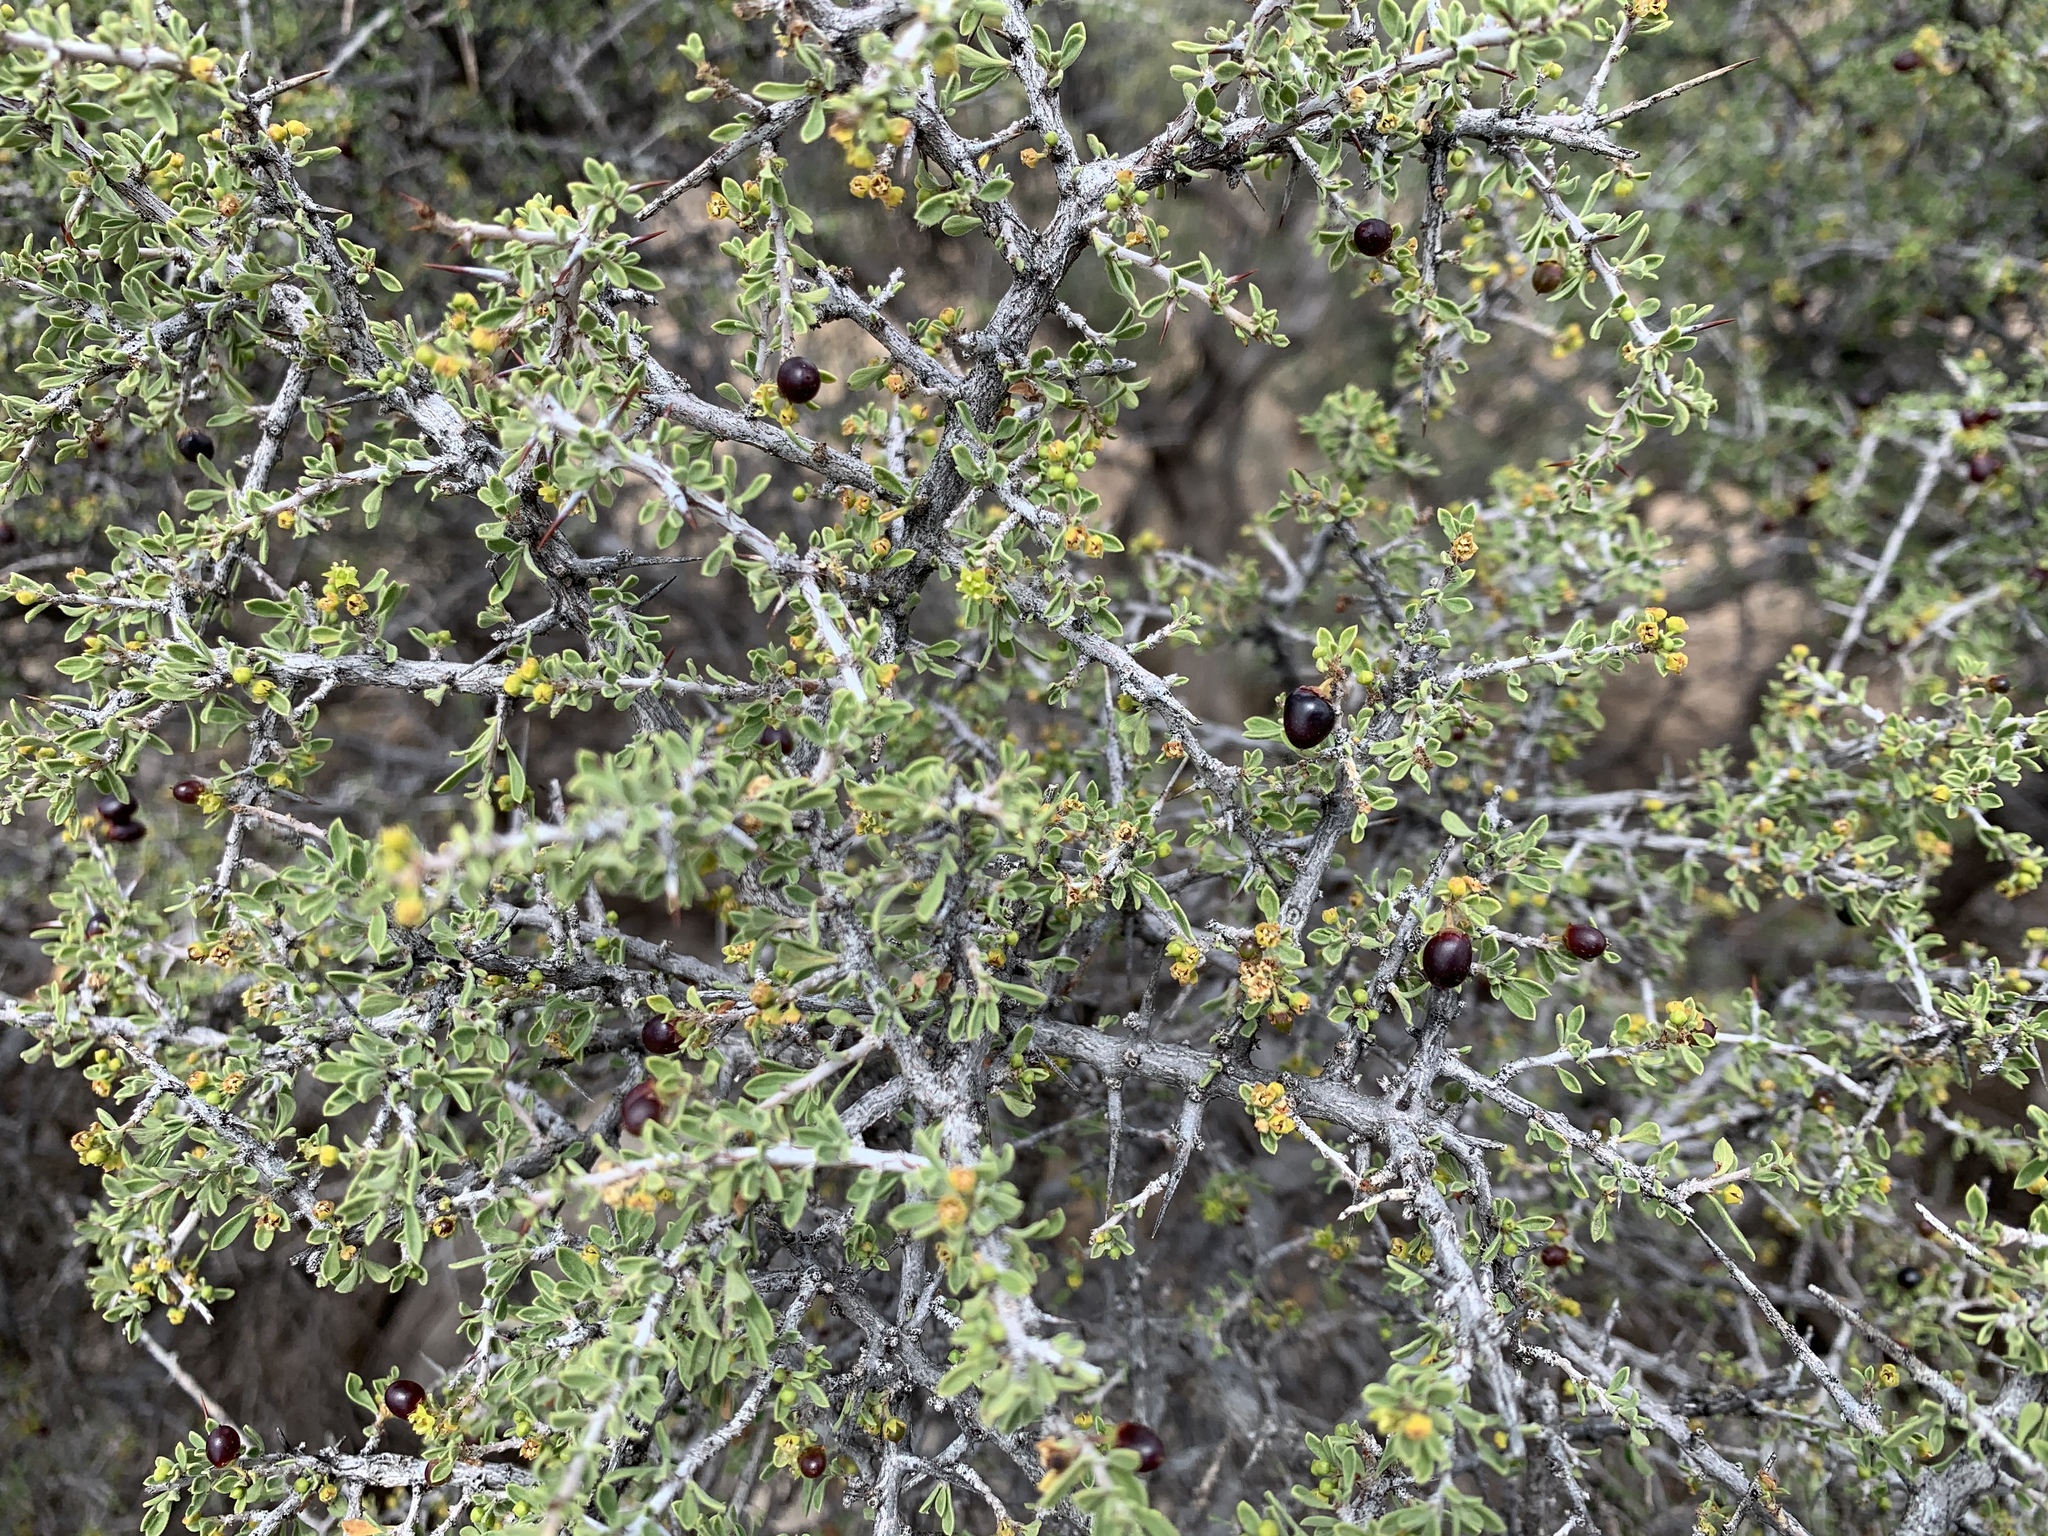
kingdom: Plantae
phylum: Tracheophyta
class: Magnoliopsida
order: Rosales
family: Rhamnaceae
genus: Condalia
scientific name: Condalia warnockii
